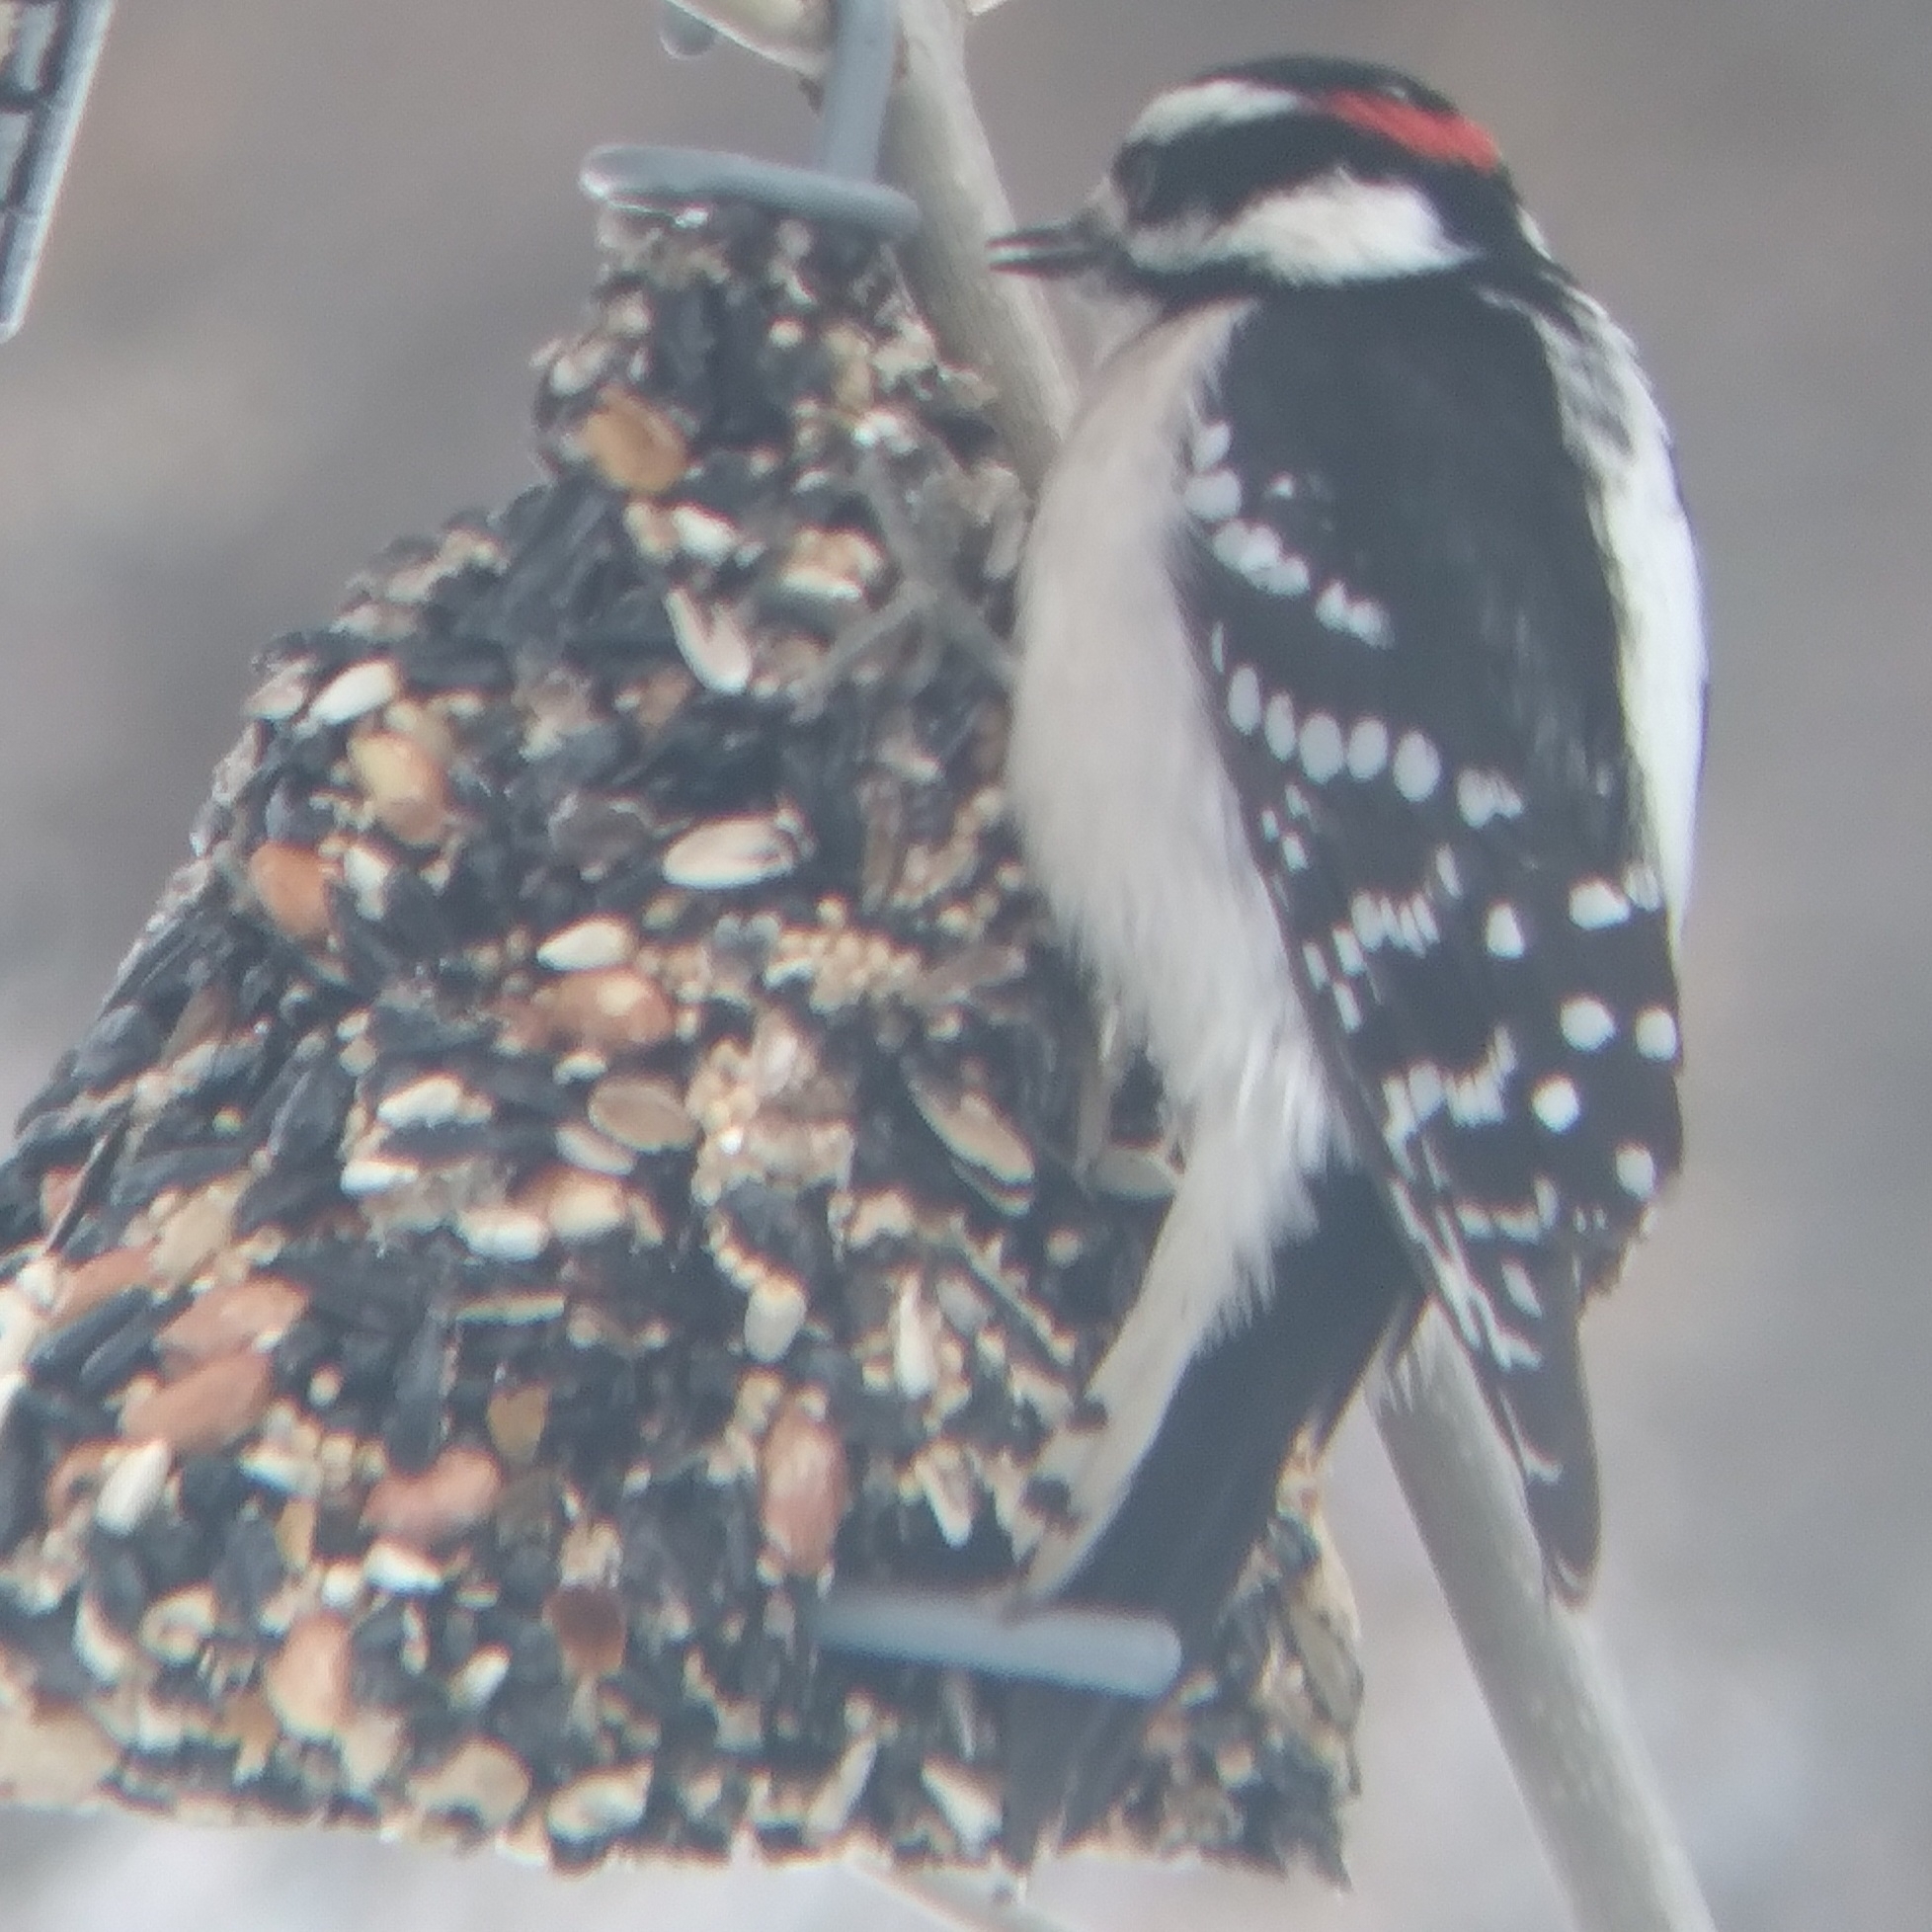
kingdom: Animalia
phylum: Chordata
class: Aves
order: Piciformes
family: Picidae
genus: Dryobates
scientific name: Dryobates pubescens
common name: Downy woodpecker
